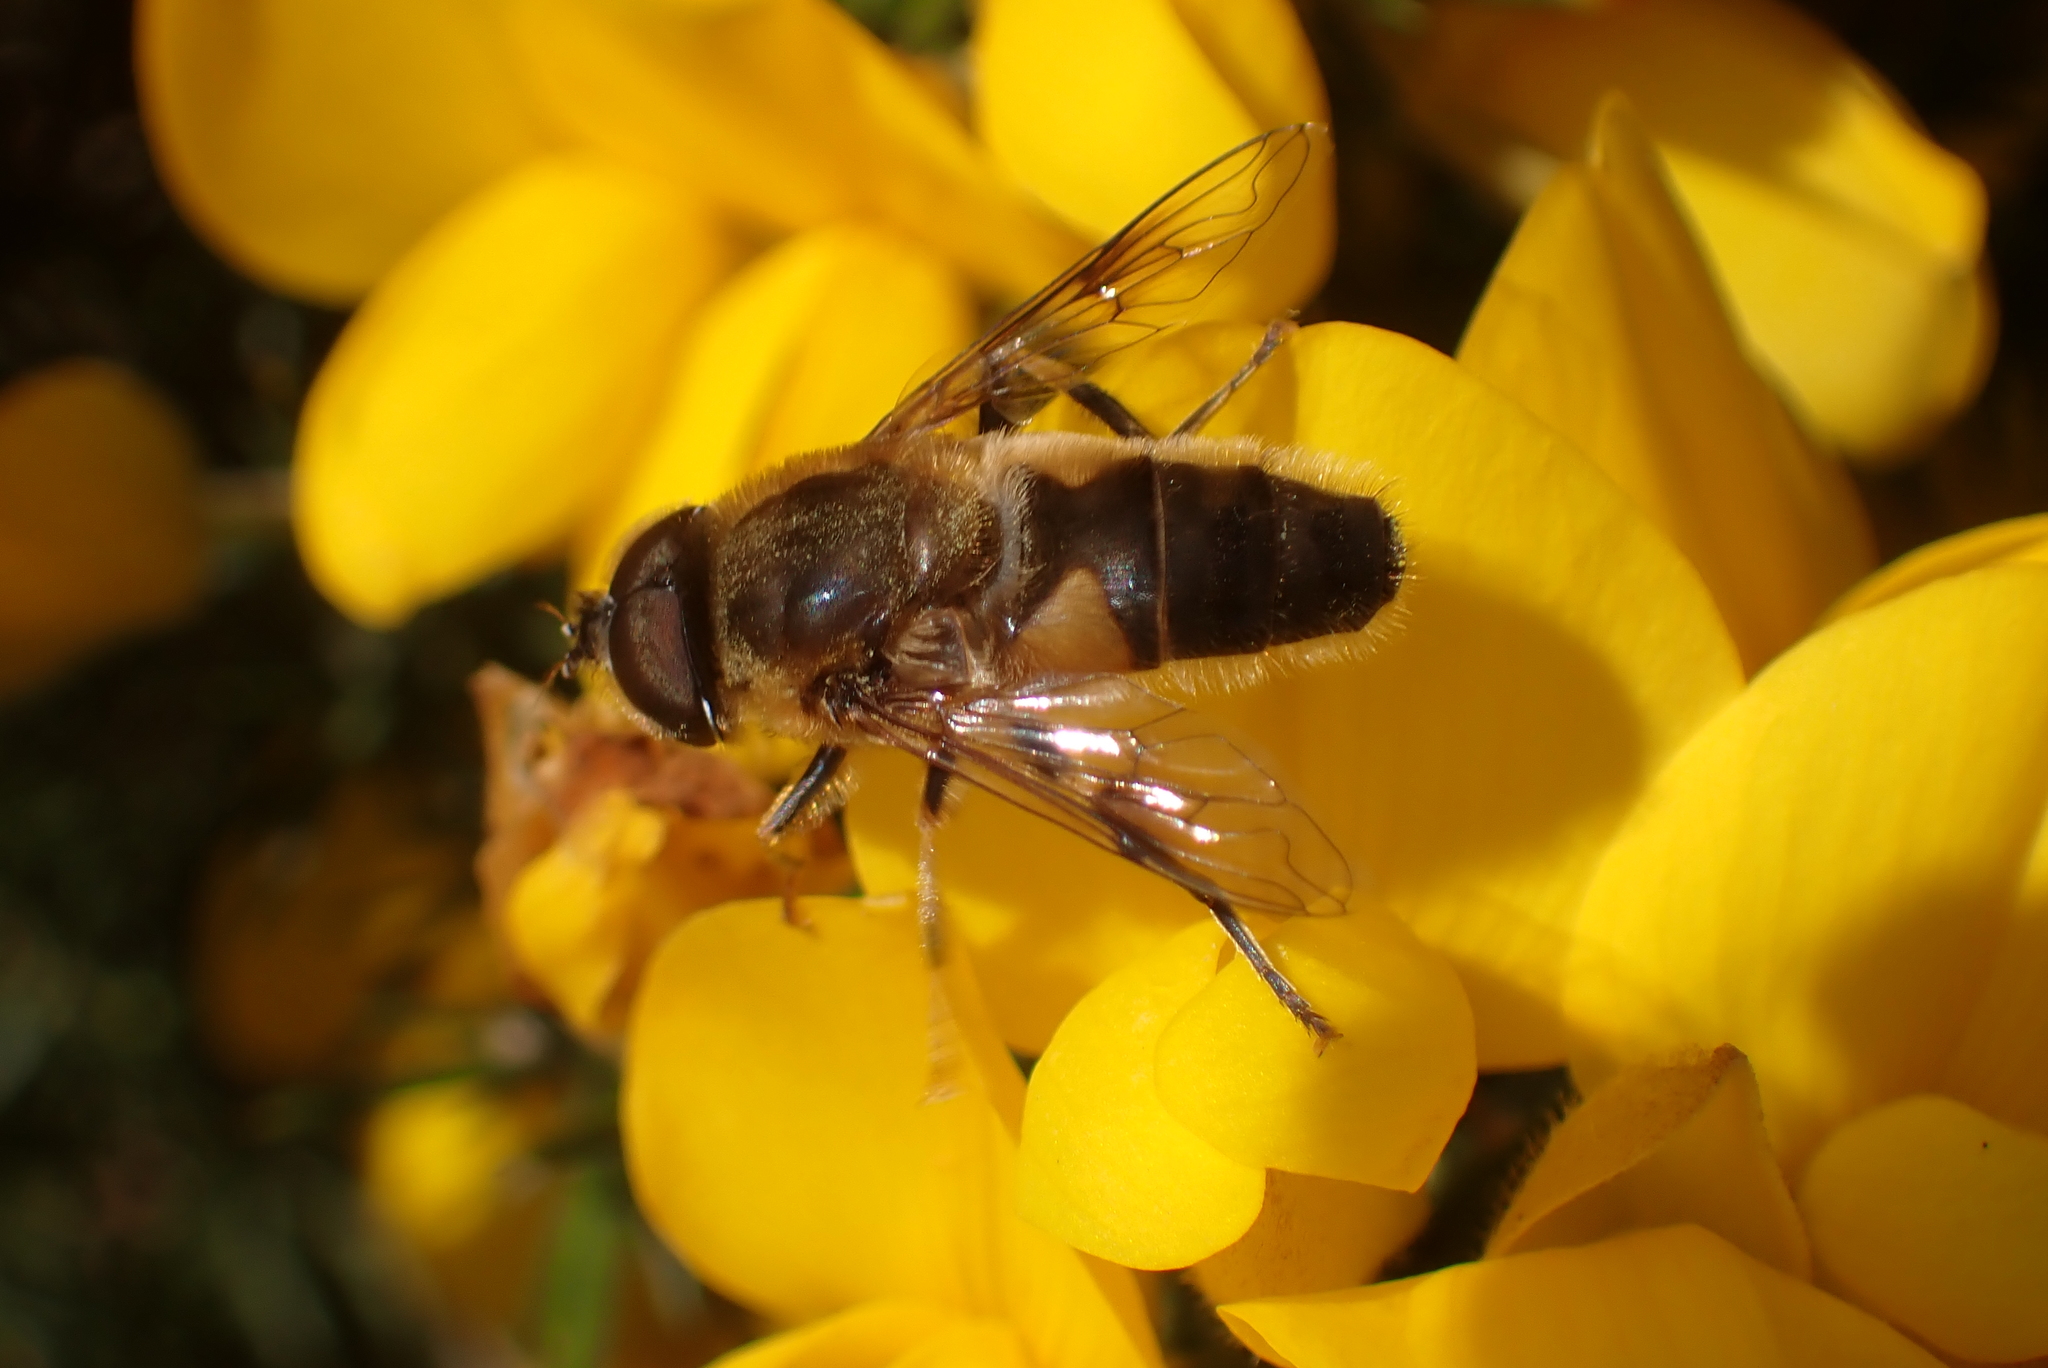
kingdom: Animalia
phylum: Arthropoda
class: Insecta
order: Diptera
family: Syrphidae
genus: Eristalis
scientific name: Eristalis pertinax
